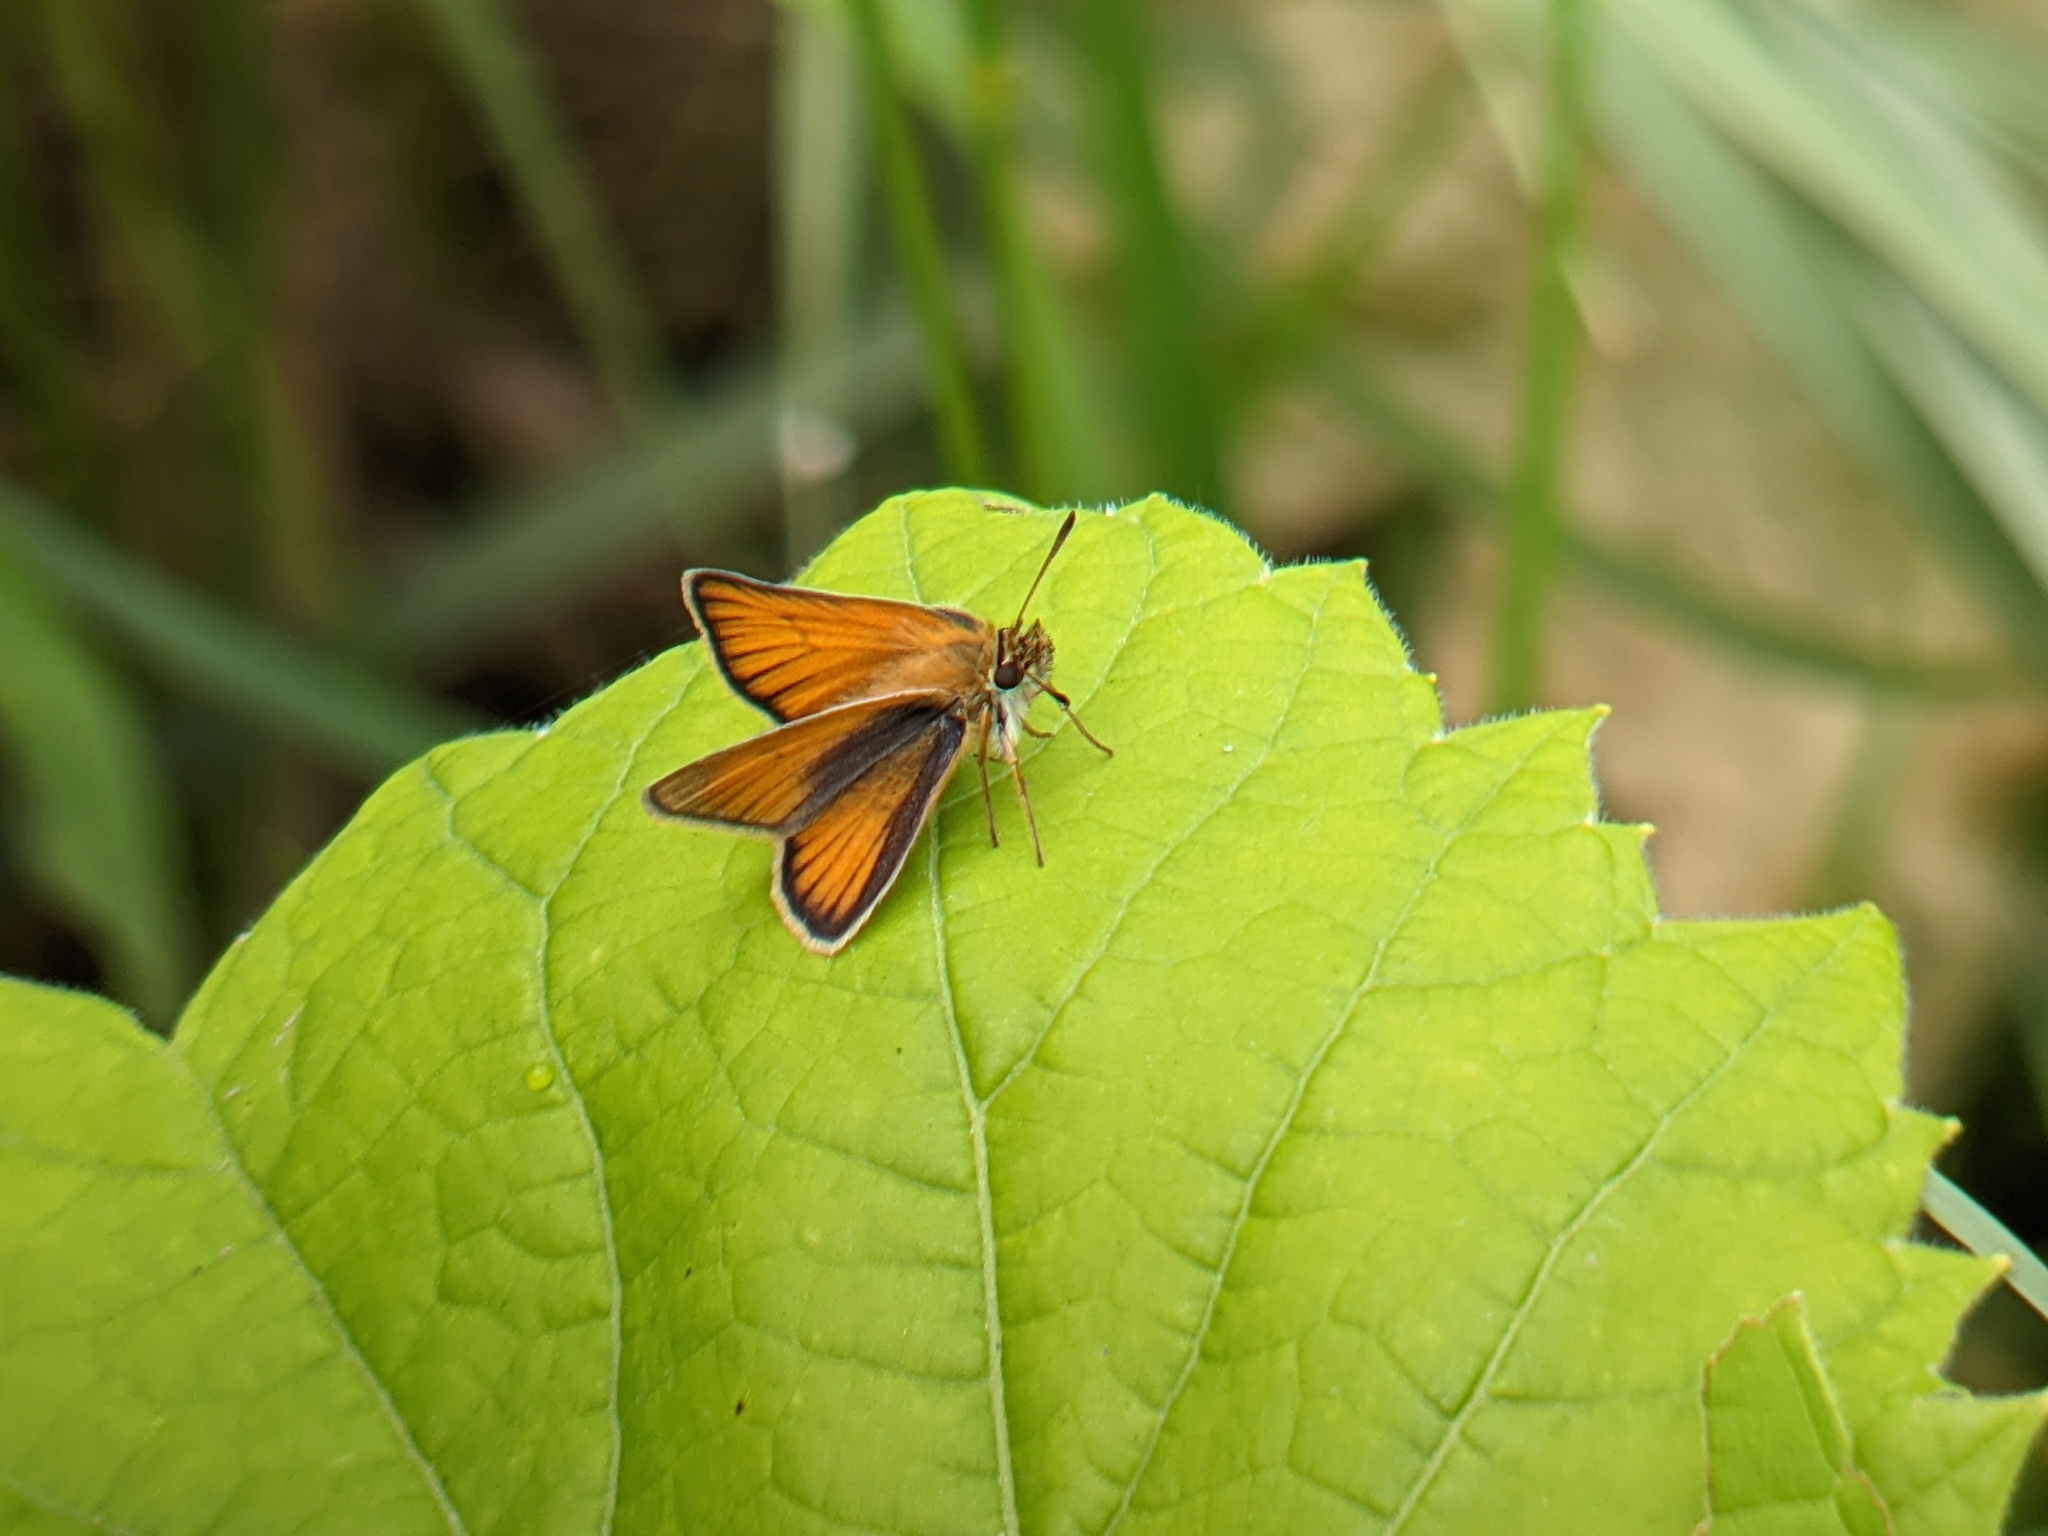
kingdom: Animalia
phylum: Arthropoda
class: Insecta
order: Lepidoptera
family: Hesperiidae
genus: Thymelicus
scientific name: Thymelicus lineola
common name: Essex skipper
